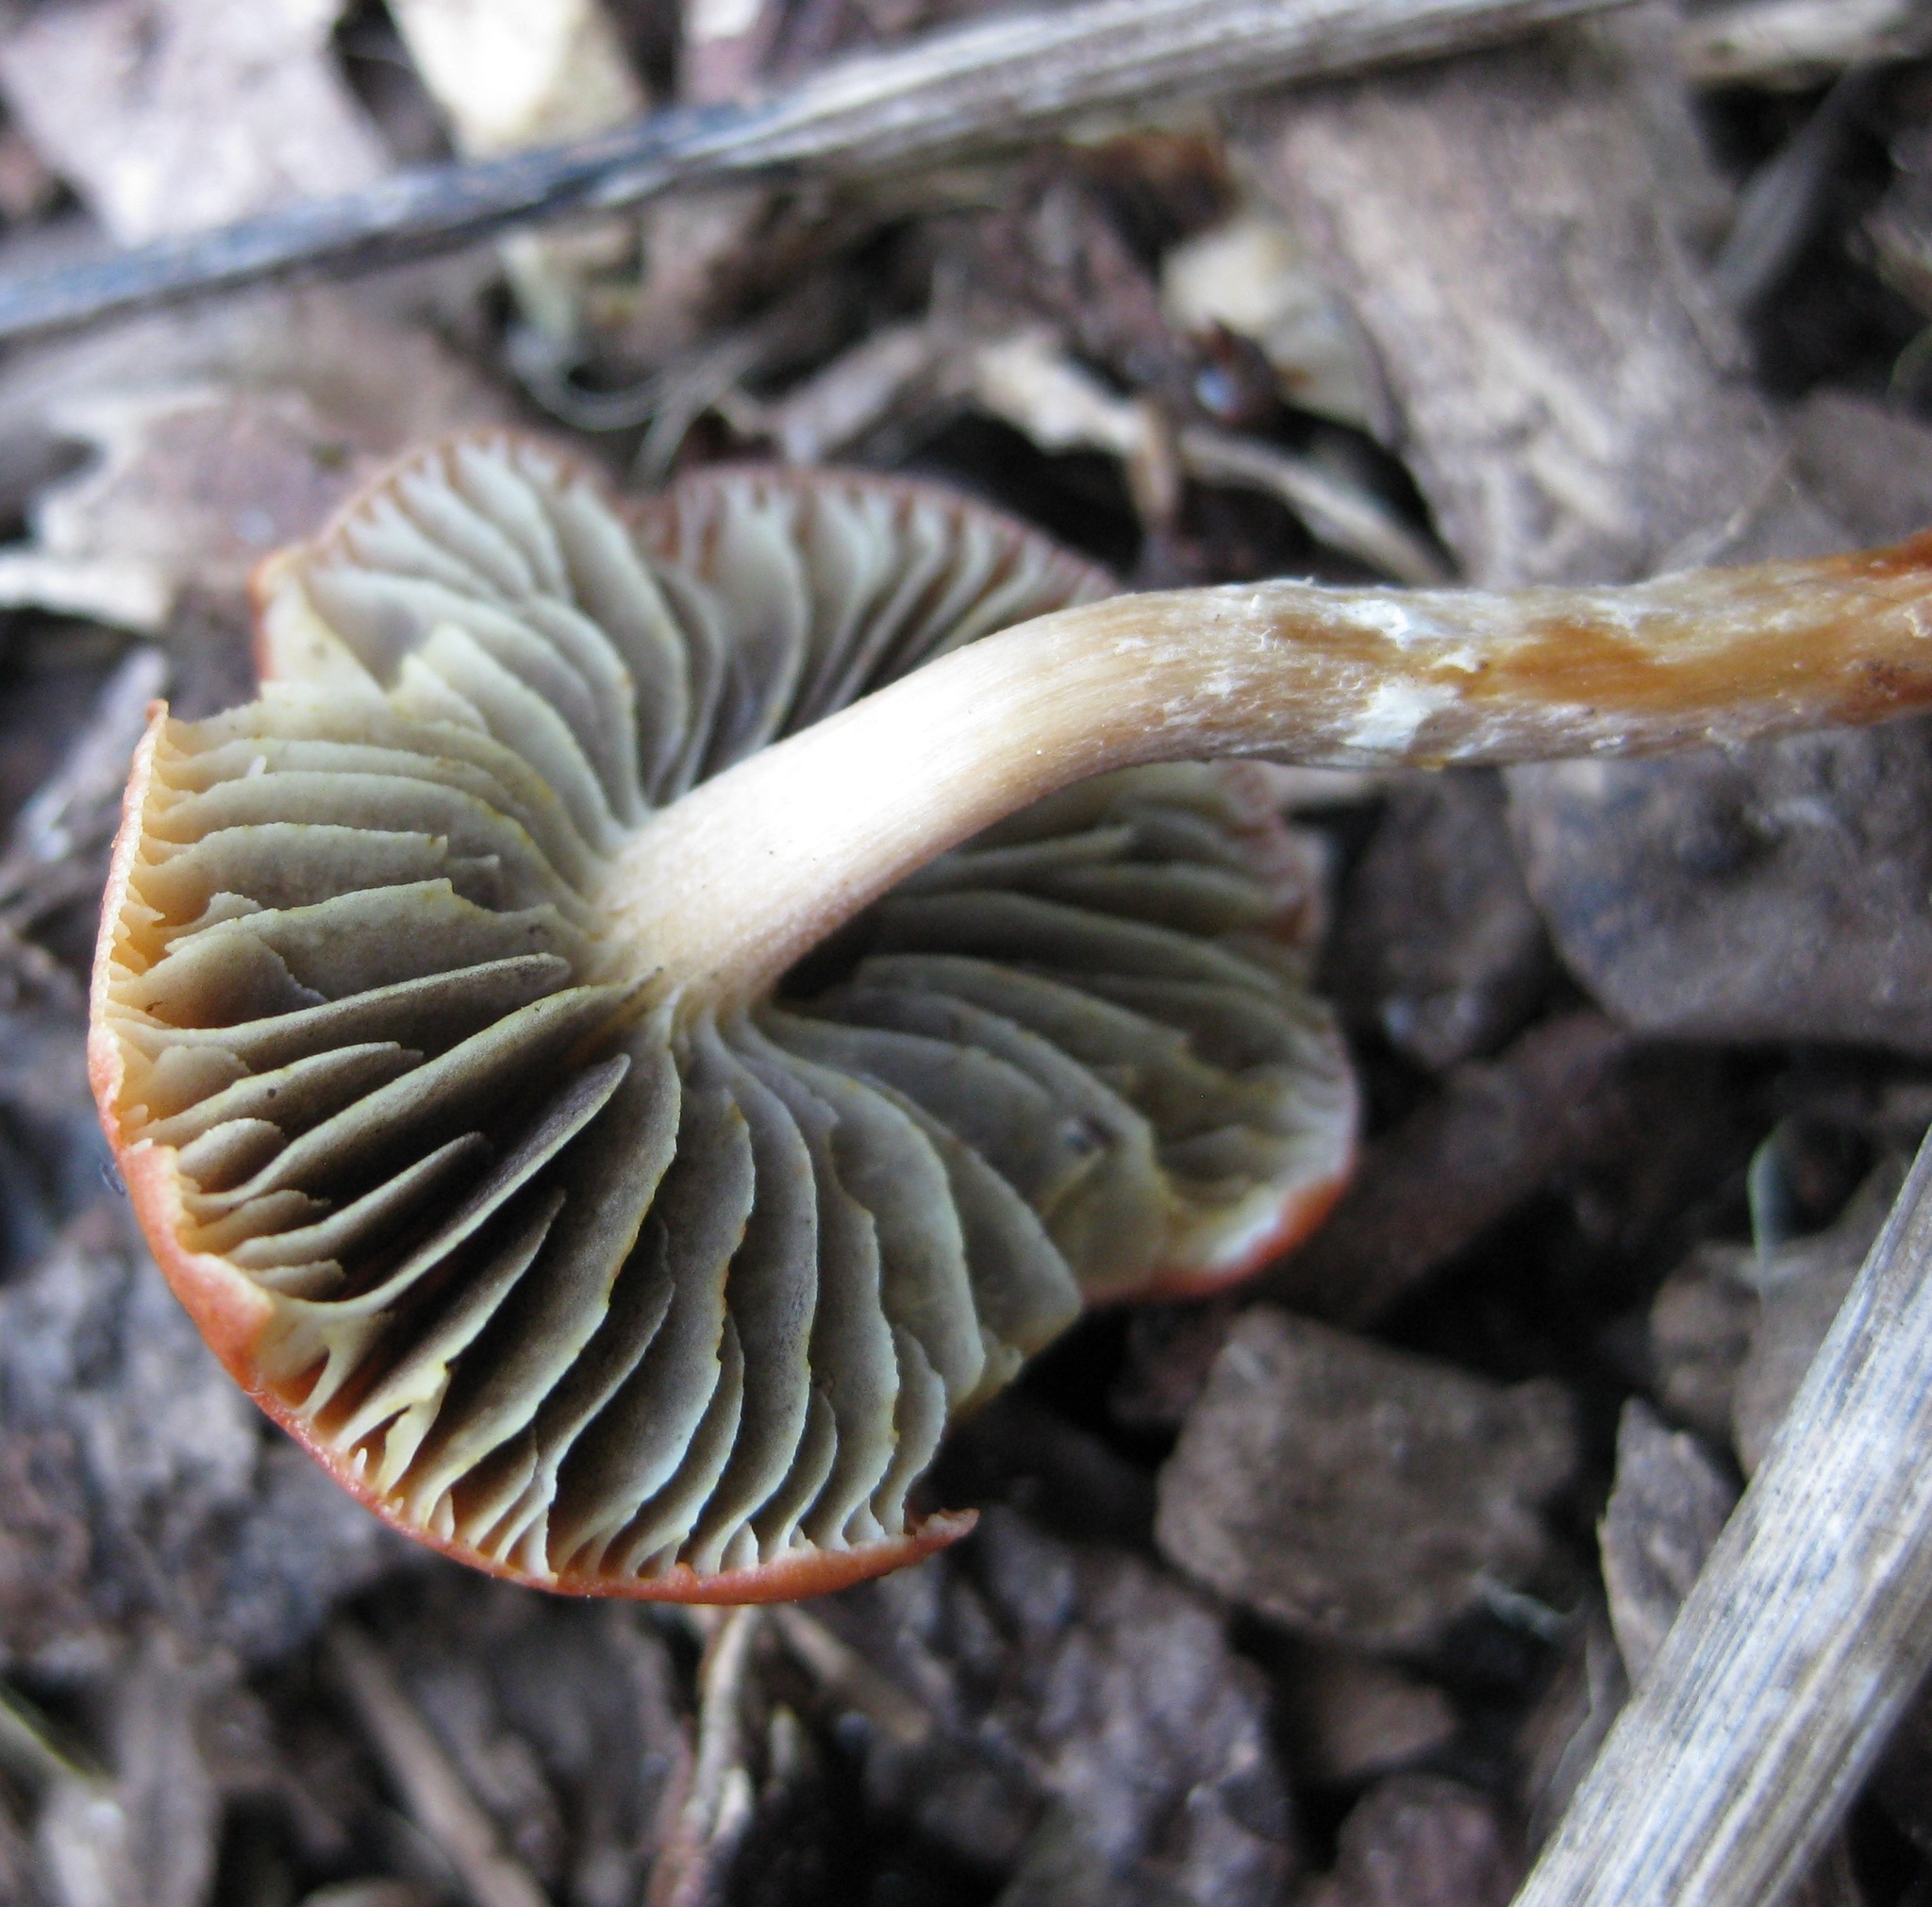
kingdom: Fungi
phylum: Basidiomycota
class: Agaricomycetes
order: Agaricales
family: Strophariaceae
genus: Leratiomyces
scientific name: Leratiomyces ceres
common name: Redlead roundhead
